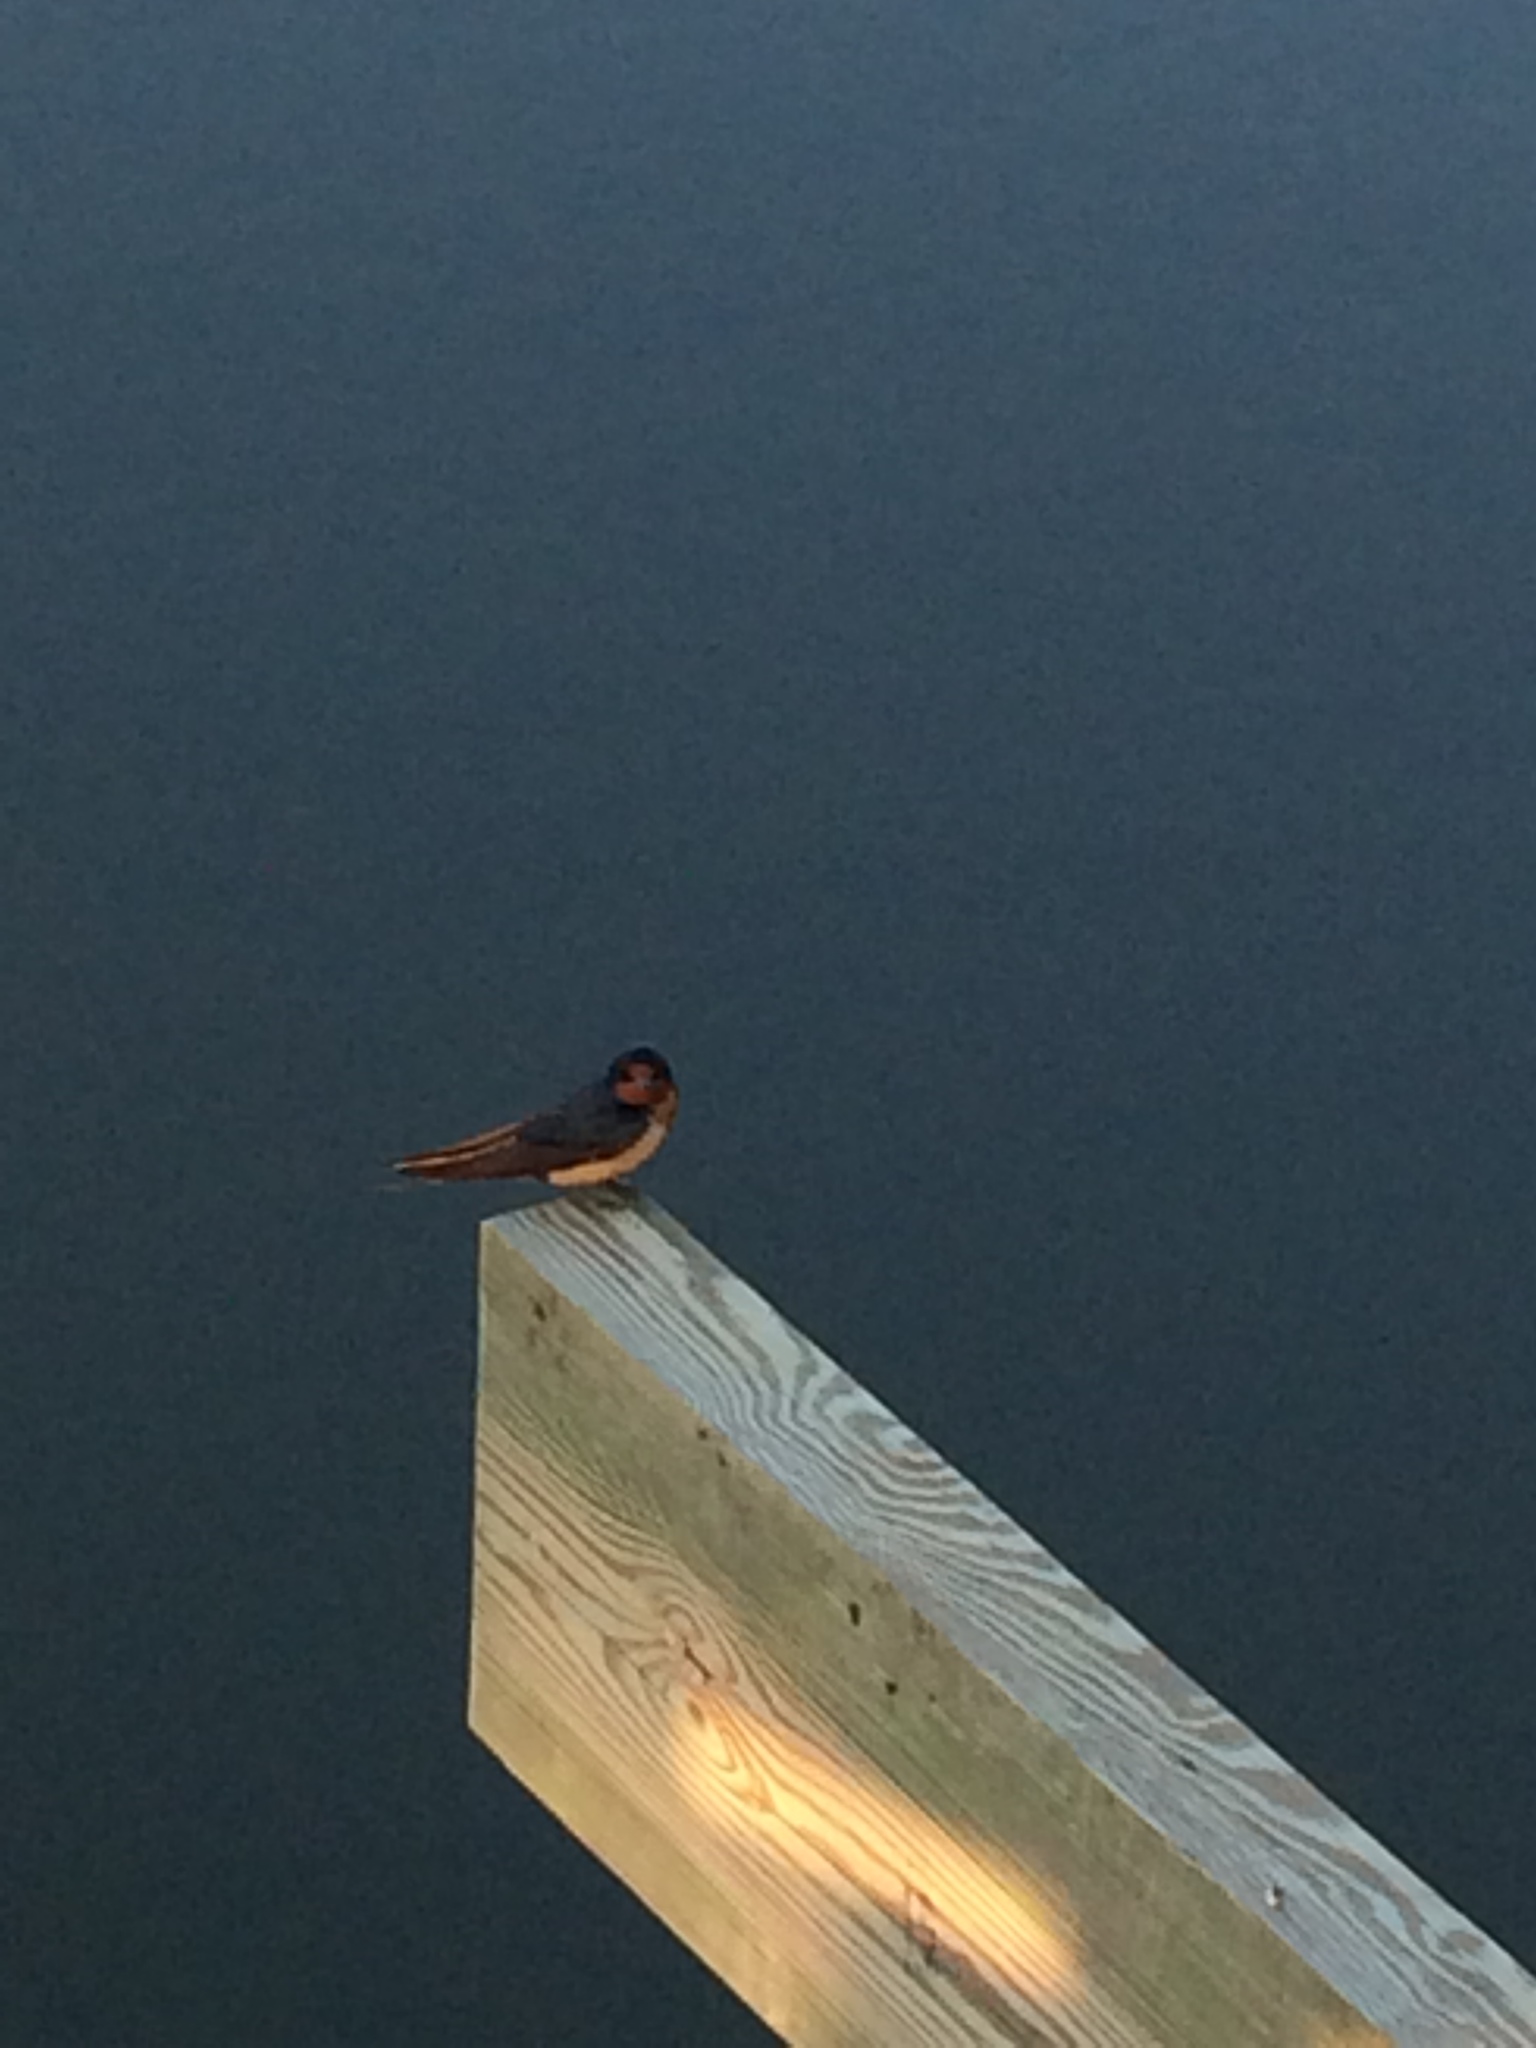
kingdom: Animalia
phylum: Chordata
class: Aves
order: Passeriformes
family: Hirundinidae
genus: Hirundo
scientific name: Hirundo rustica
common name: Barn swallow
